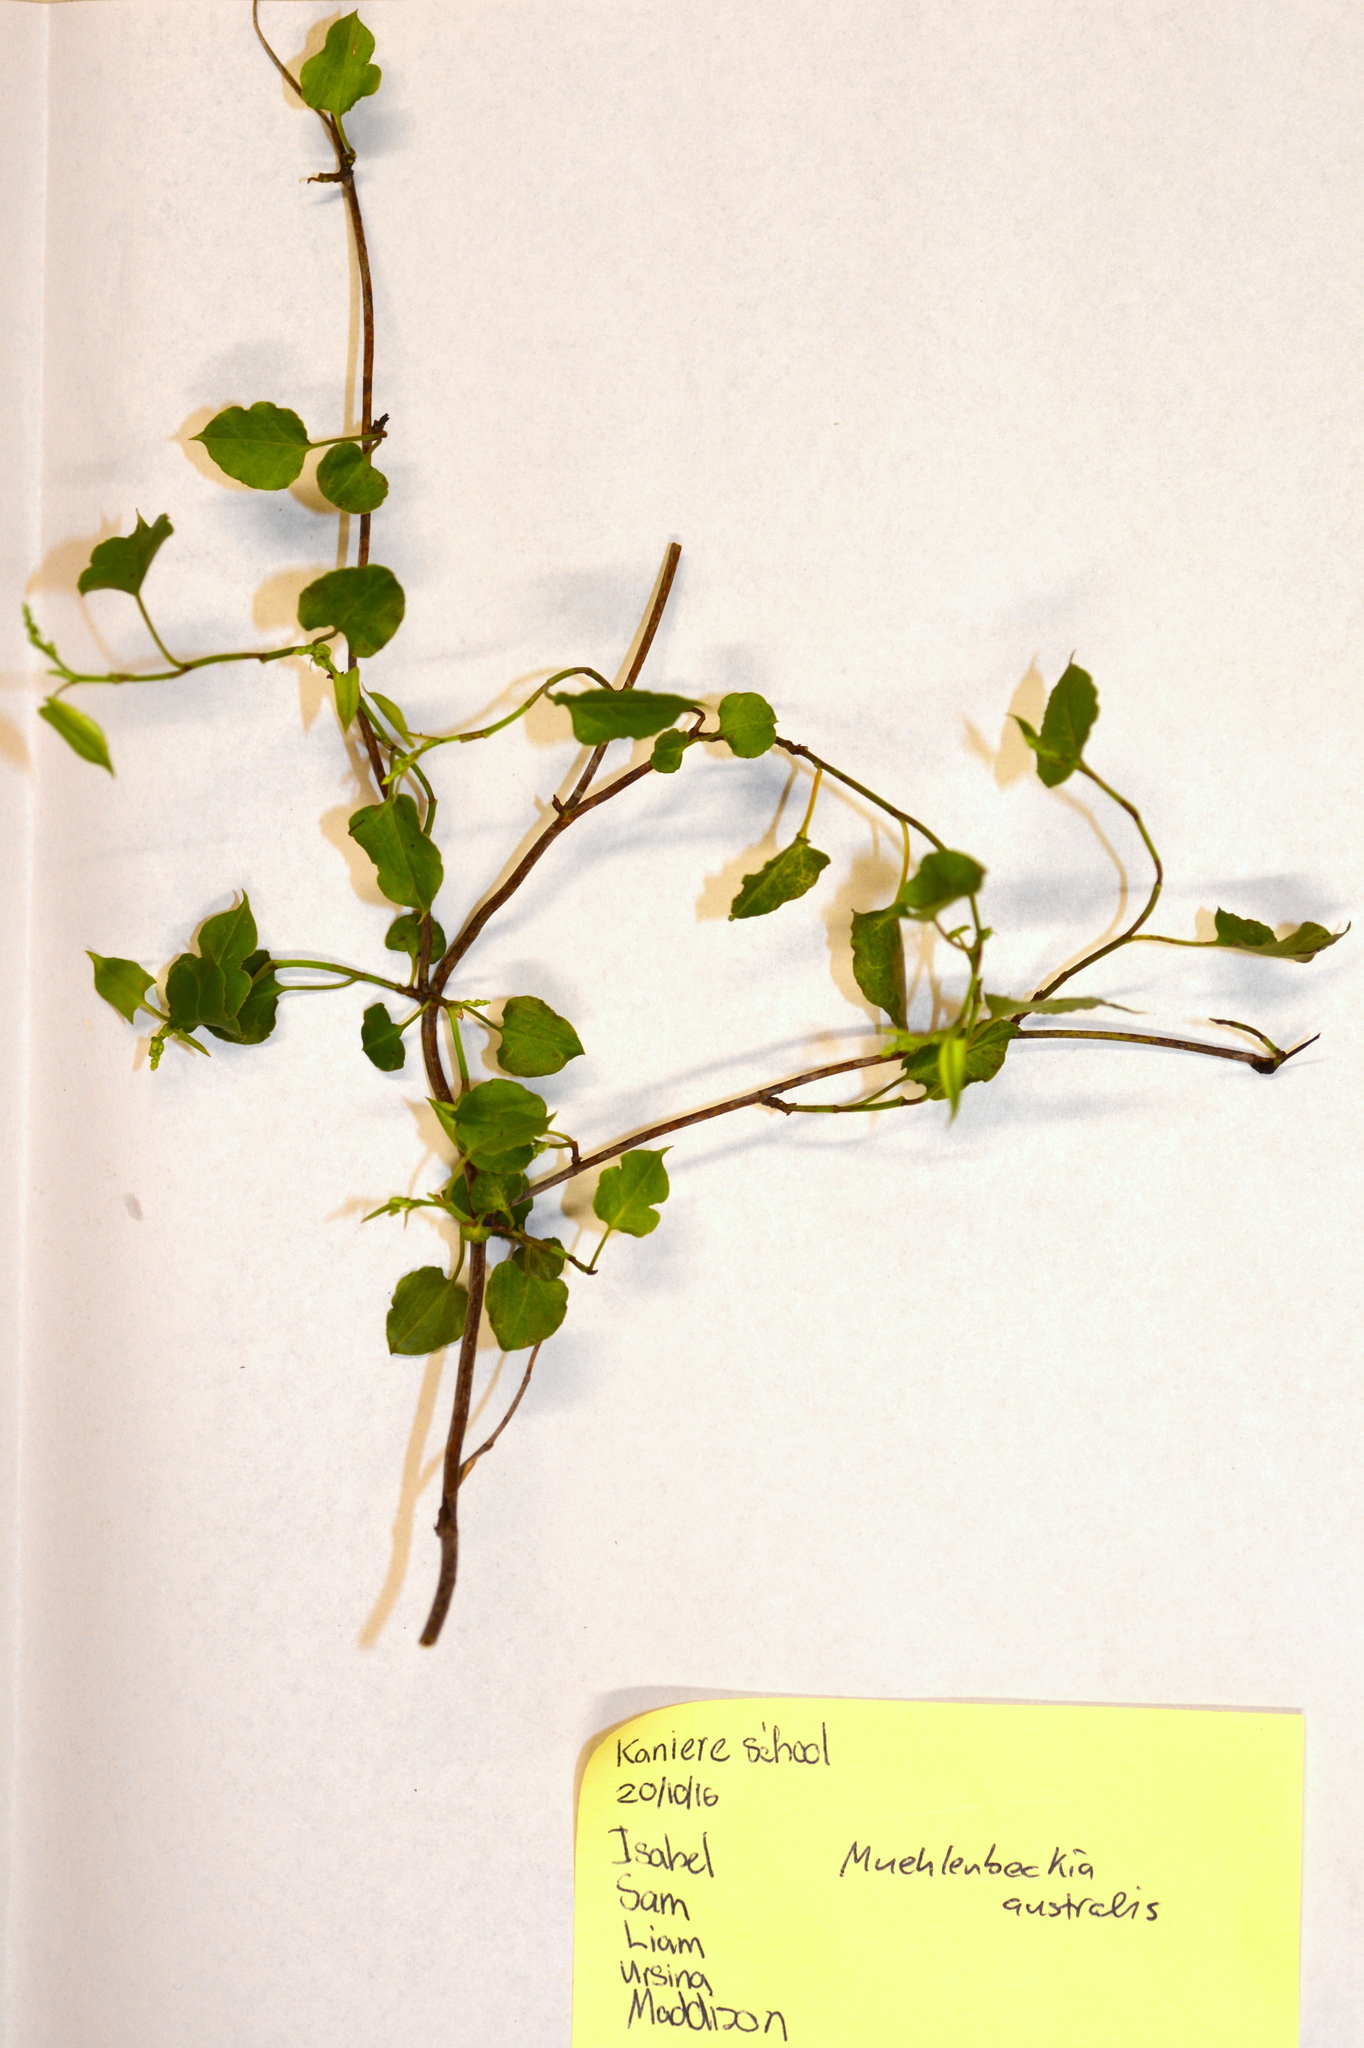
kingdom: Plantae
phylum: Tracheophyta
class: Magnoliopsida
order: Caryophyllales
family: Polygonaceae
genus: Muehlenbeckia
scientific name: Muehlenbeckia australis
